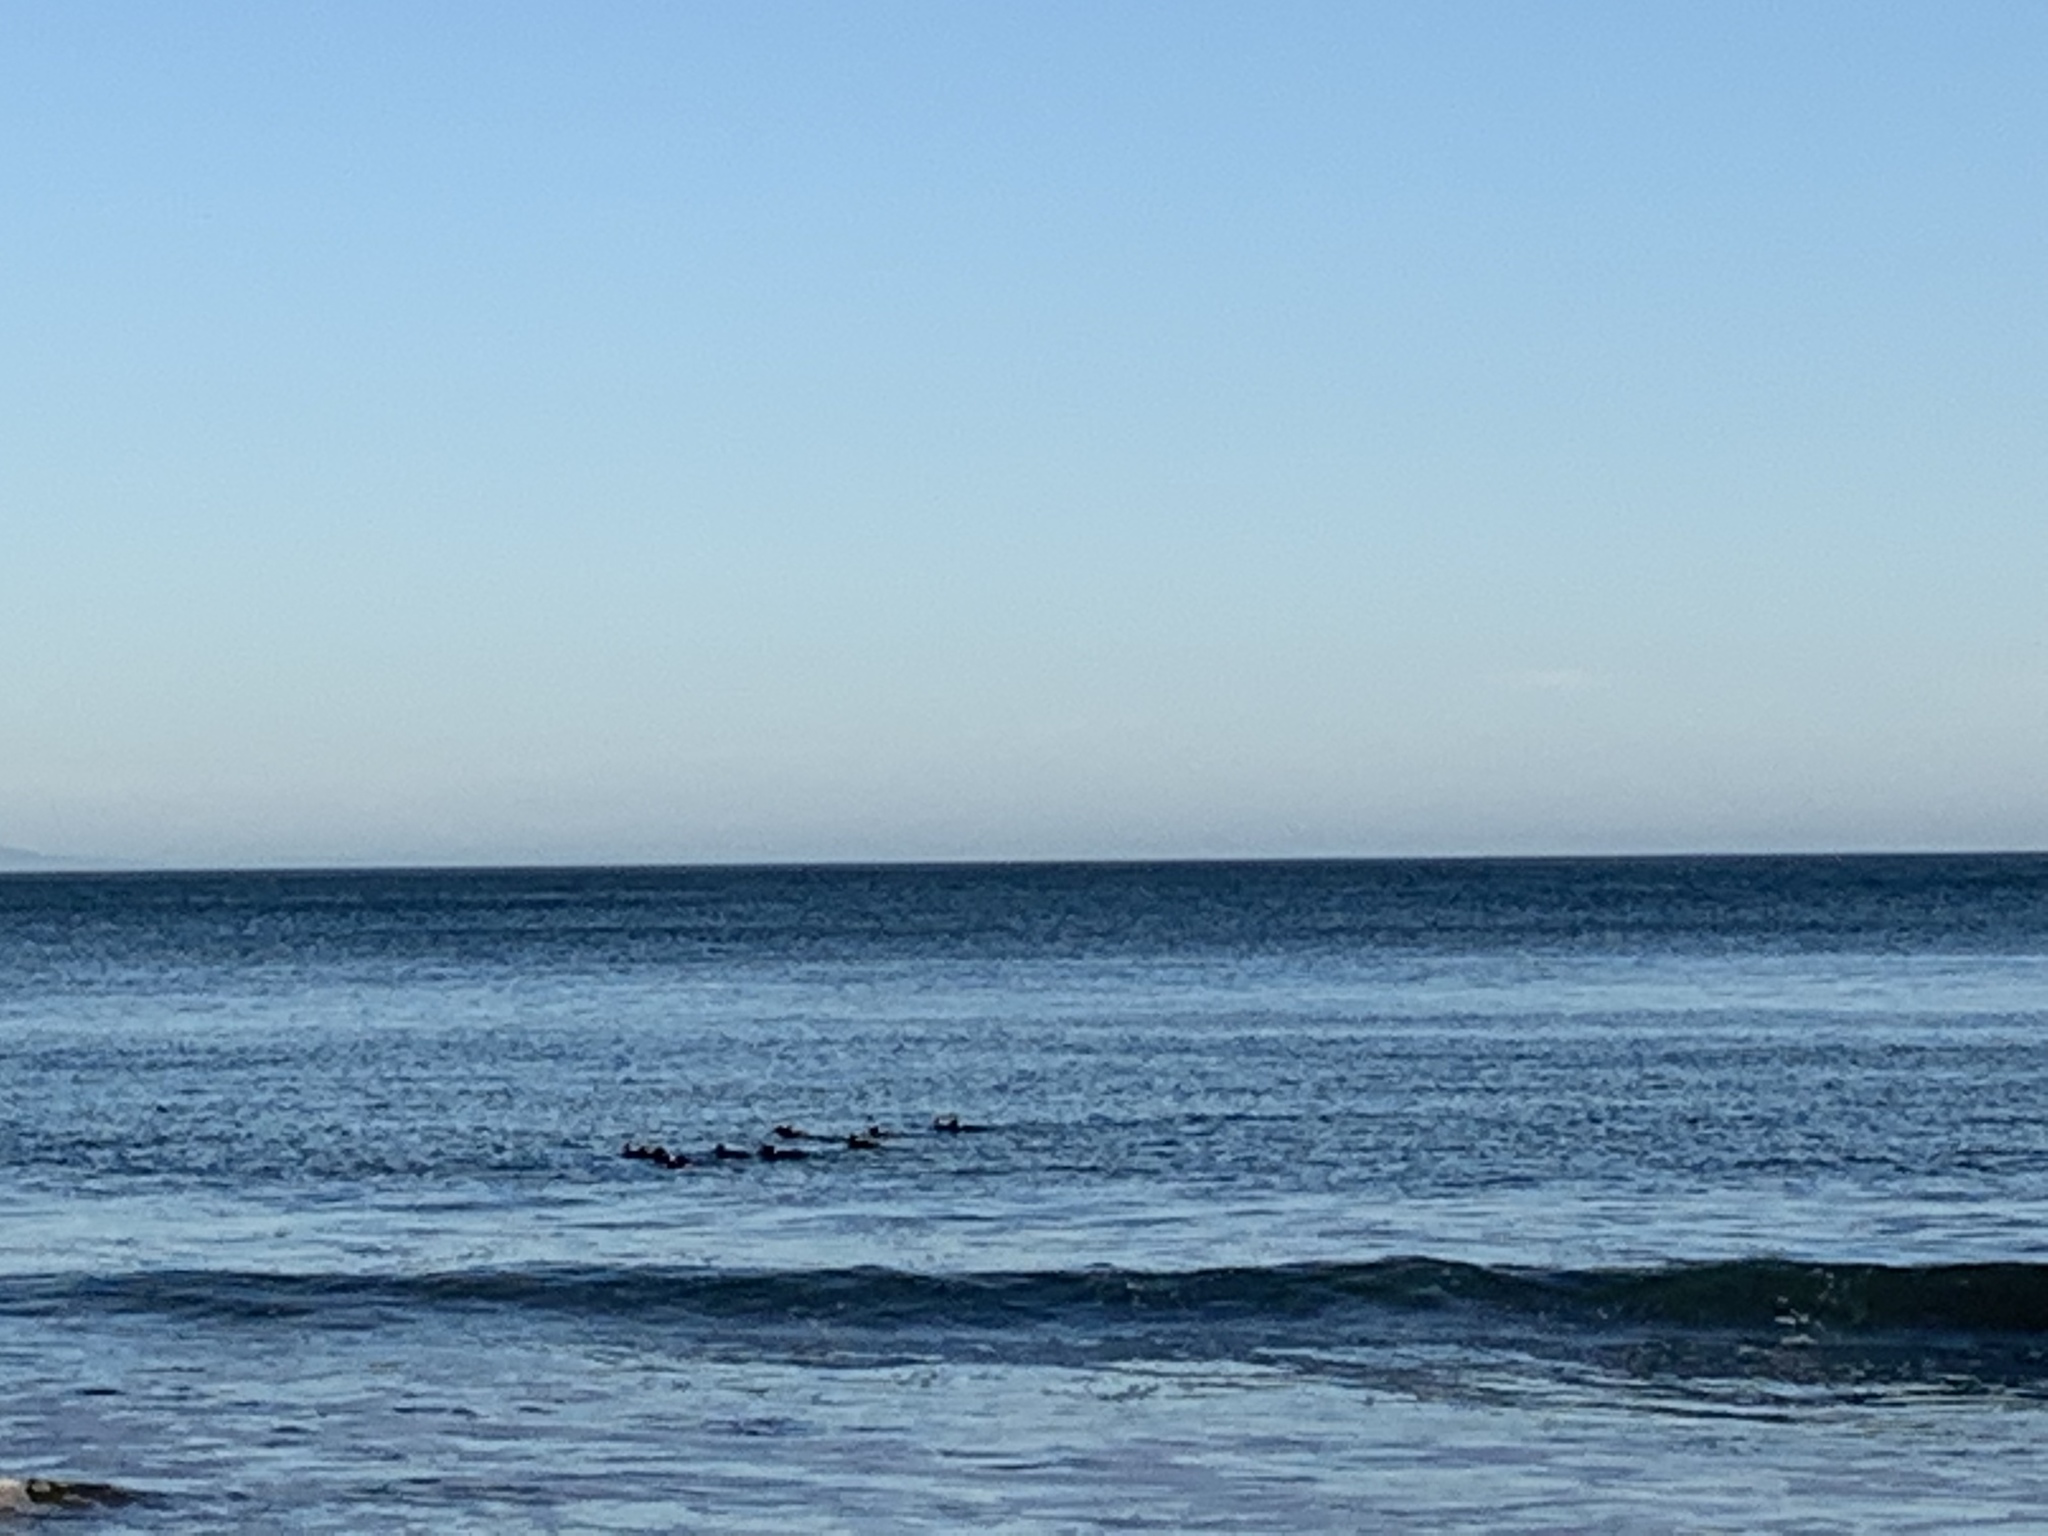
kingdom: Animalia
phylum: Chordata
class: Aves
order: Anseriformes
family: Anatidae
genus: Melanitta
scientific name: Melanitta perspicillata
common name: Surf scoter
